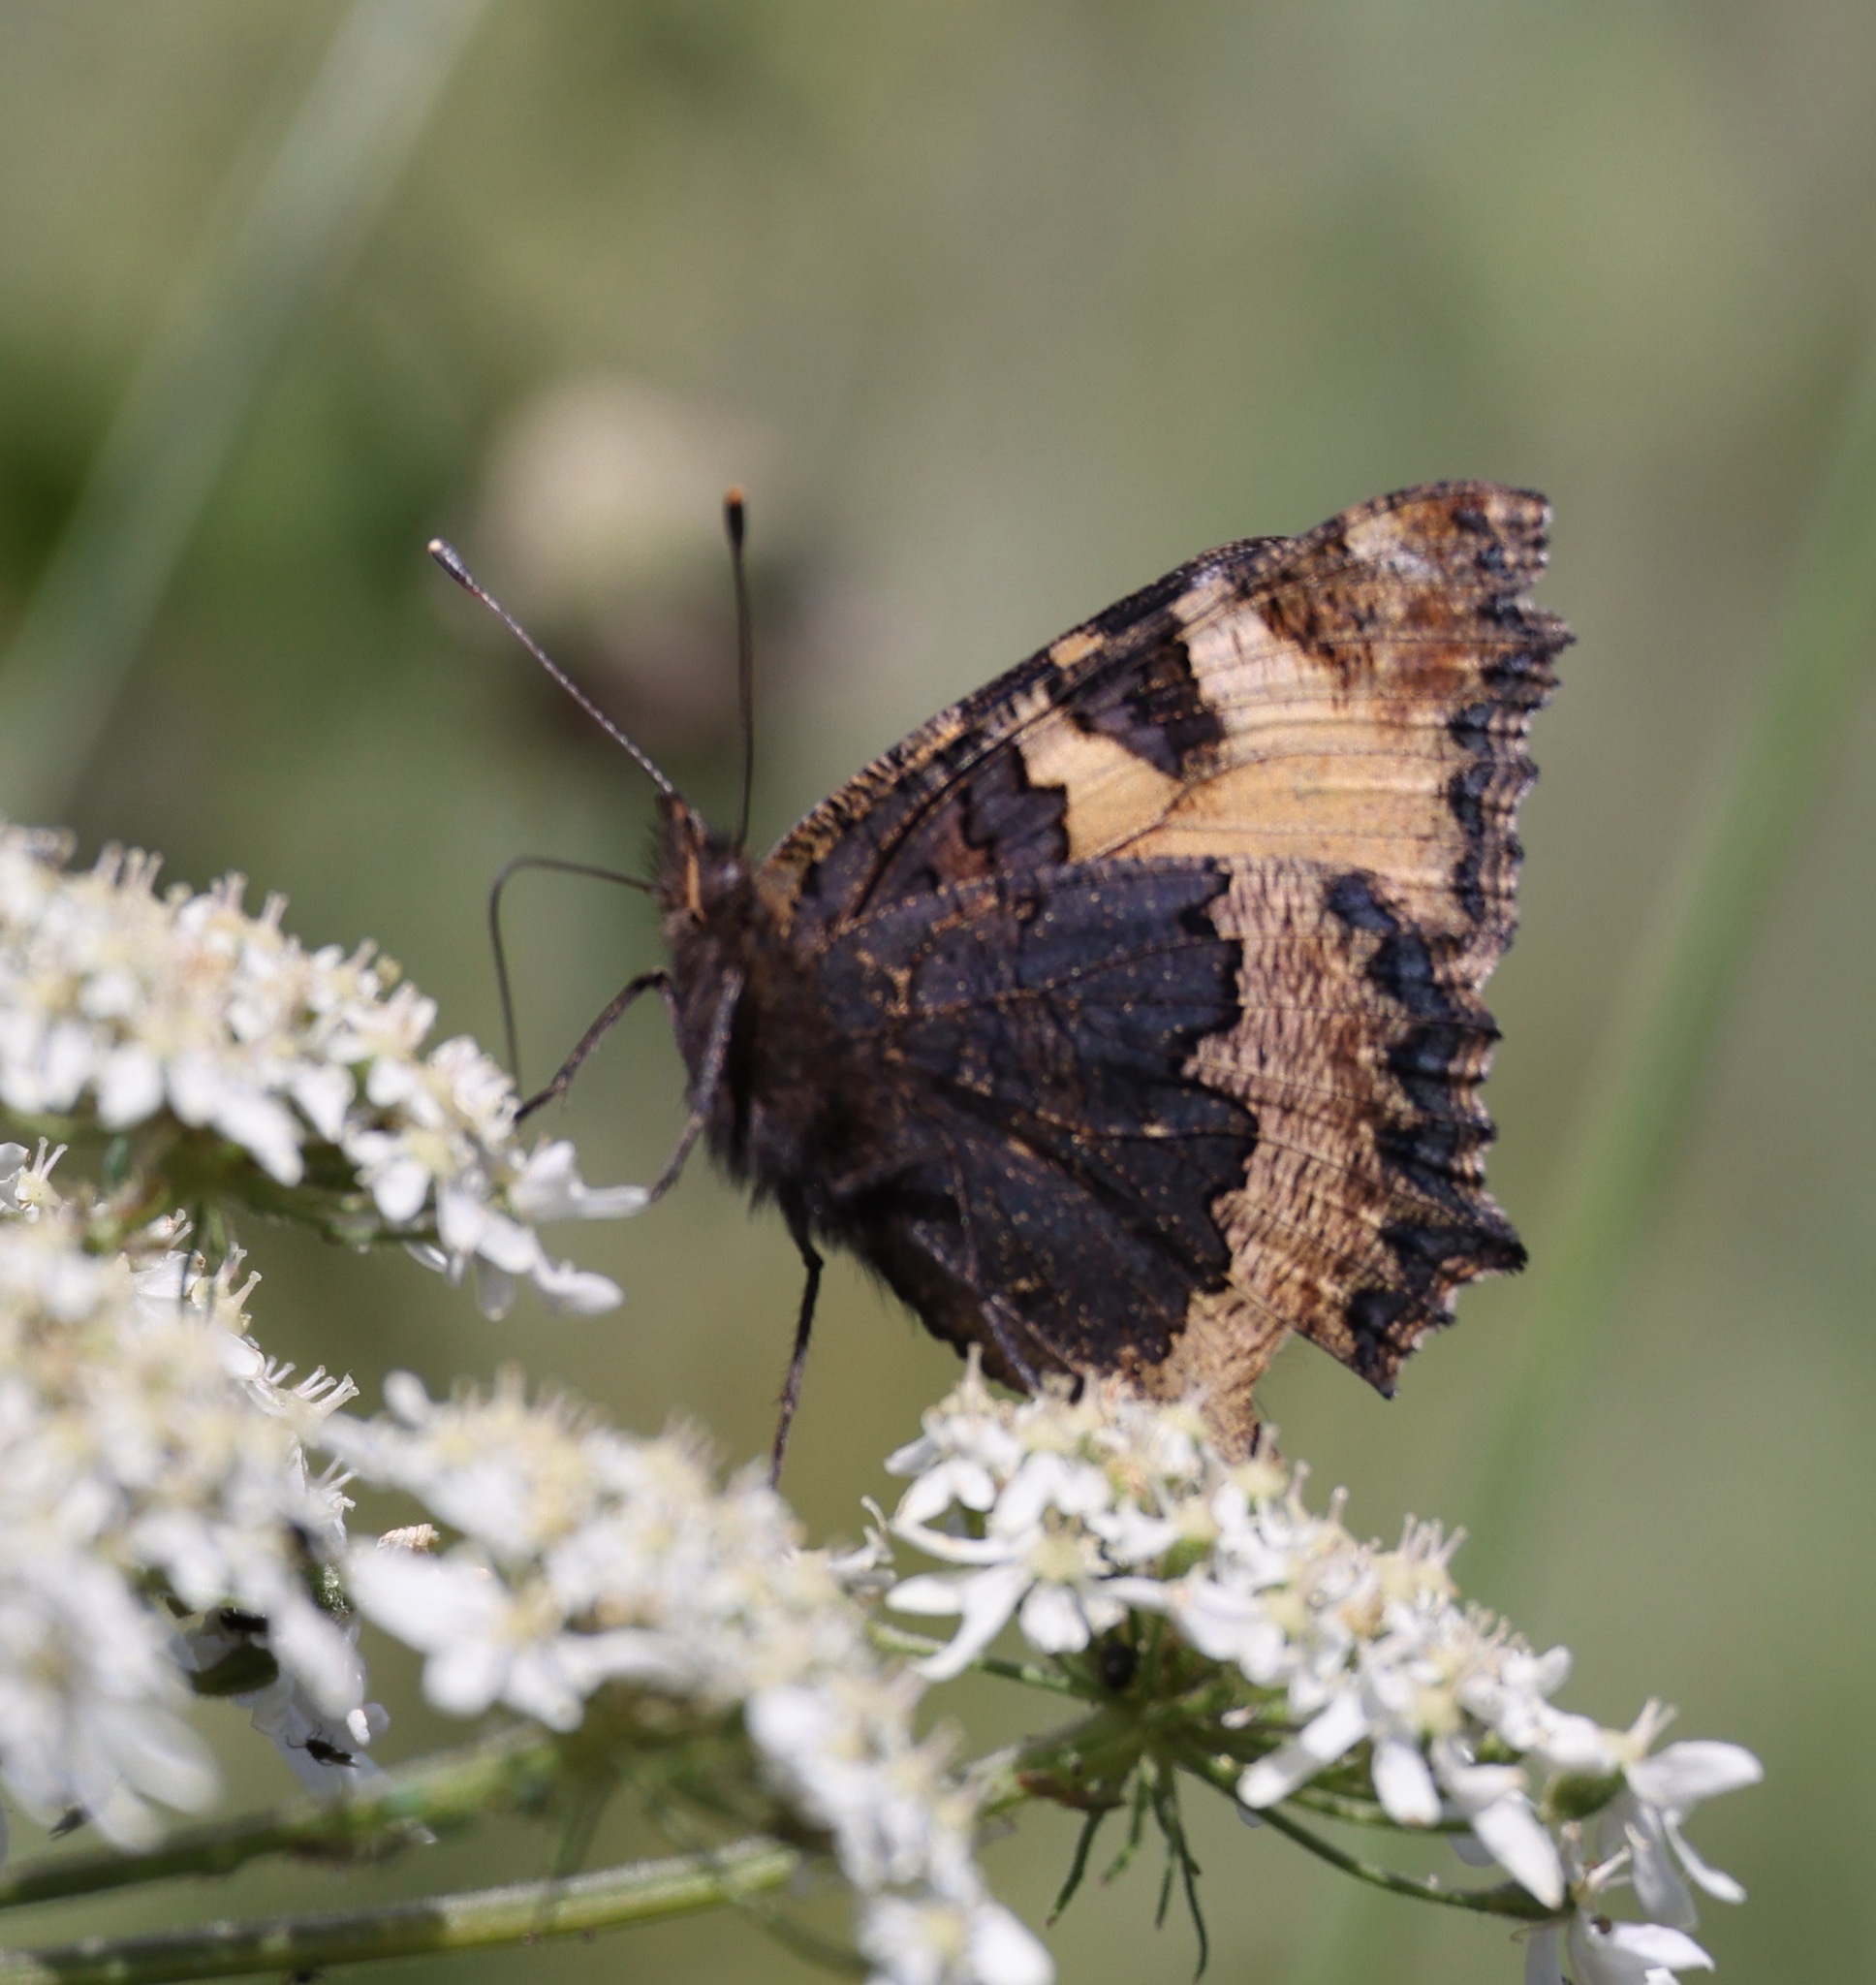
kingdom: Animalia
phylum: Arthropoda
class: Insecta
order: Lepidoptera
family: Nymphalidae
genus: Aglais
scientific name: Aglais urticae
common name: Small tortoiseshell
